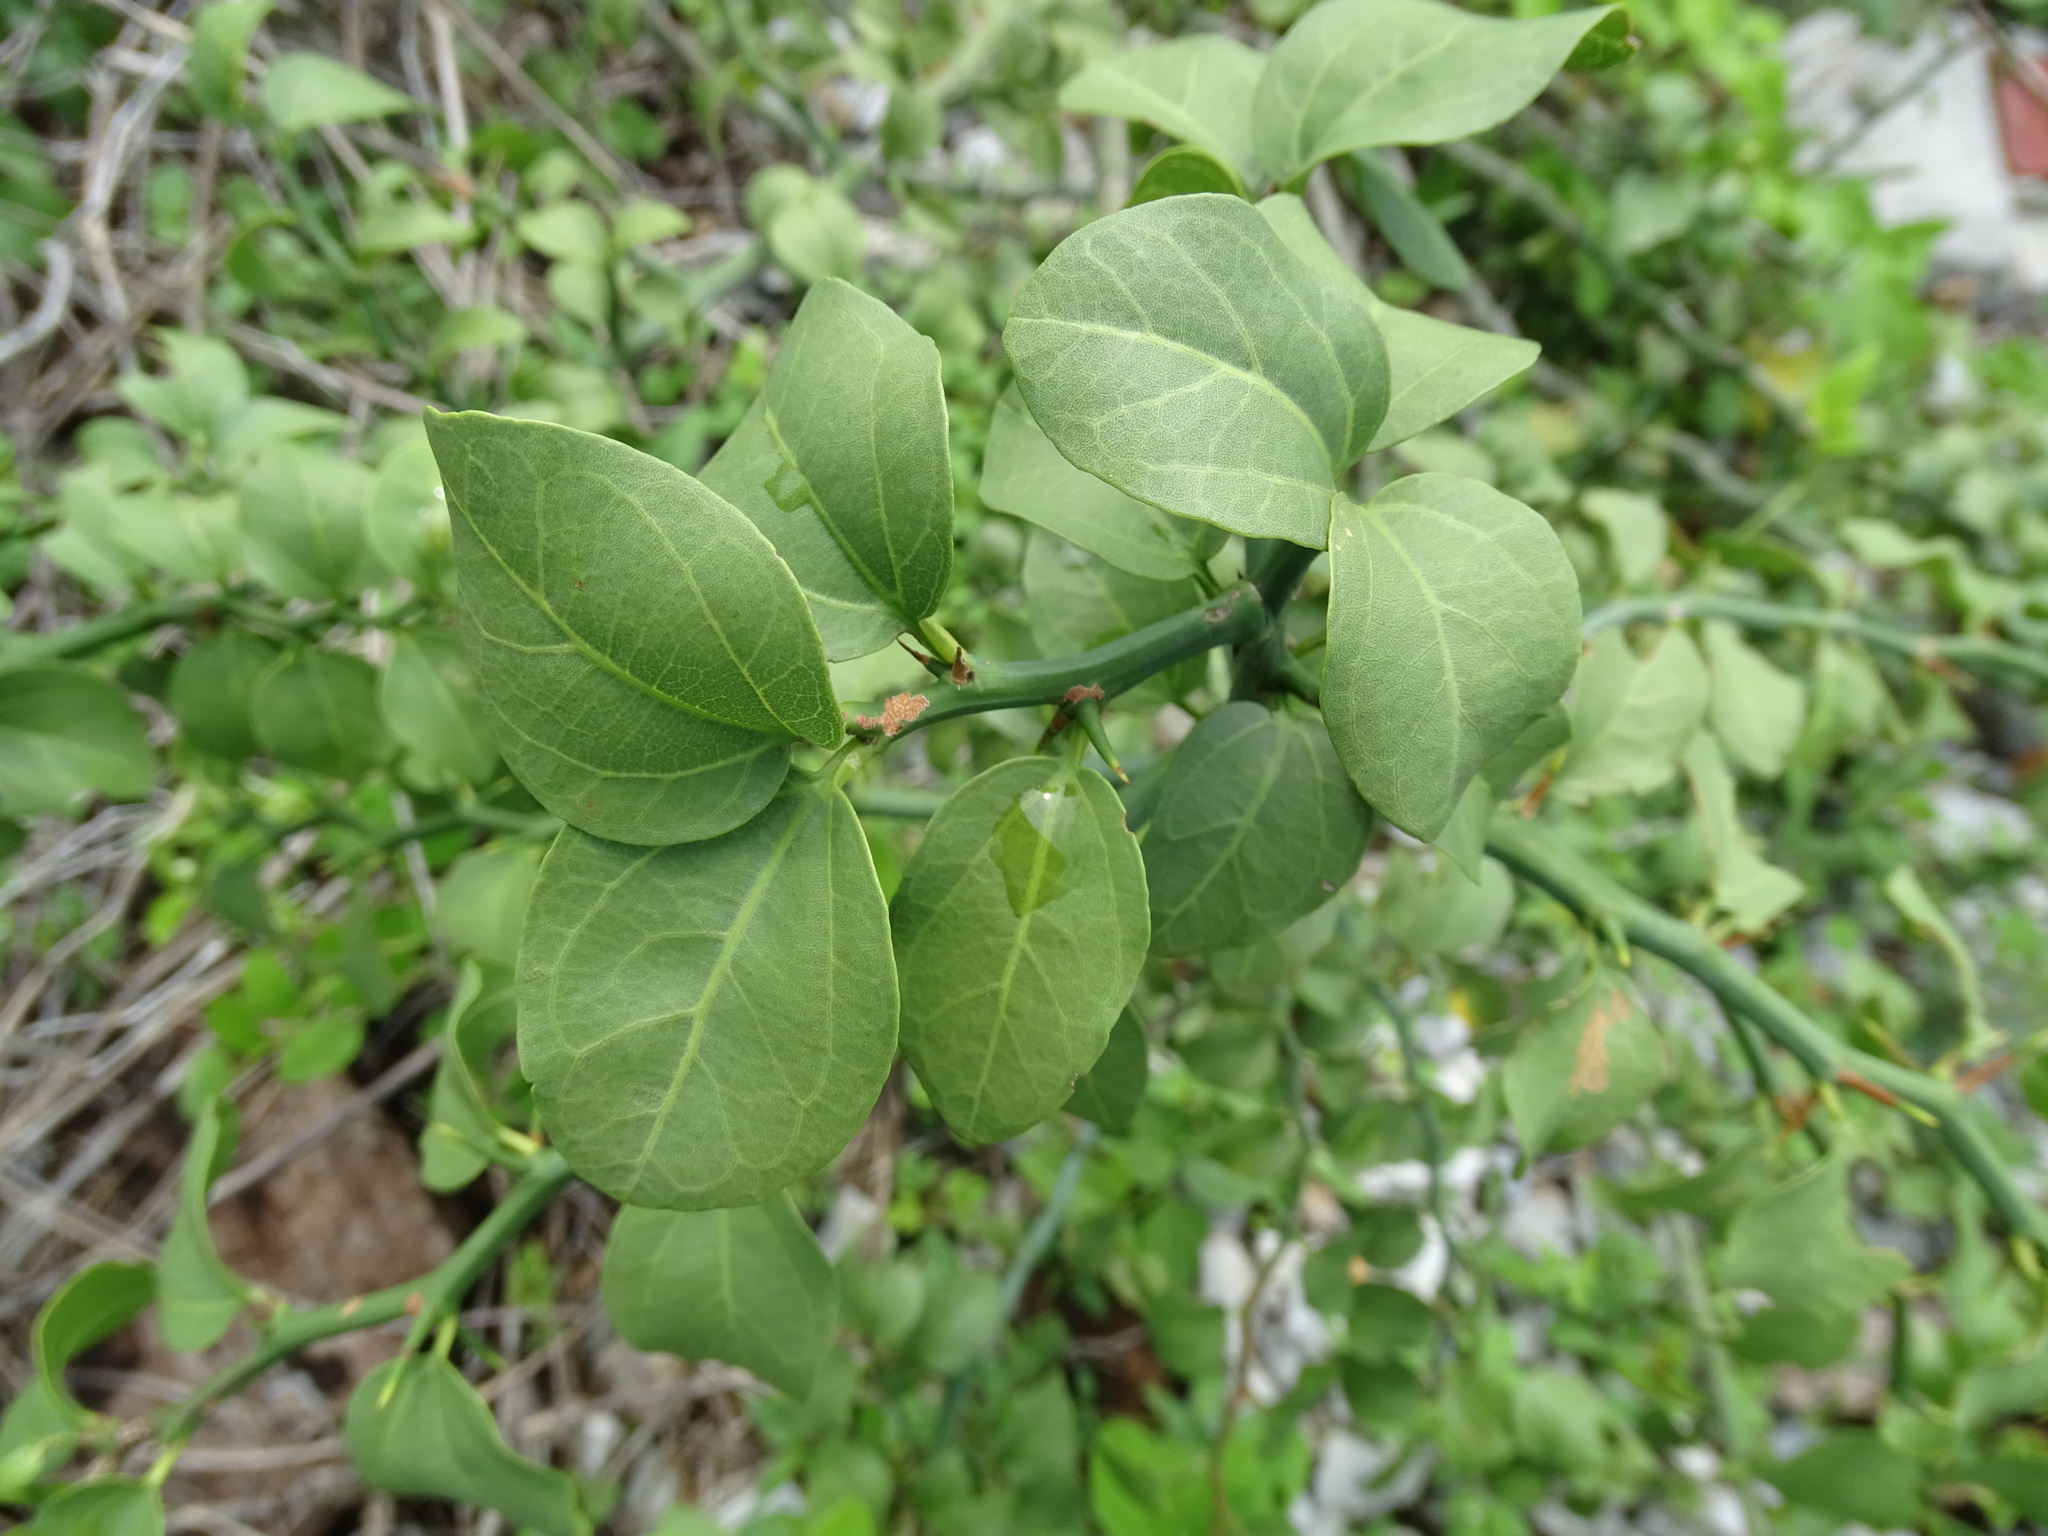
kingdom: Plantae
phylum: Tracheophyta
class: Magnoliopsida
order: Rosales
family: Rhamnaceae
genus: Sarcomphalus
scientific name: Sarcomphalus amole
